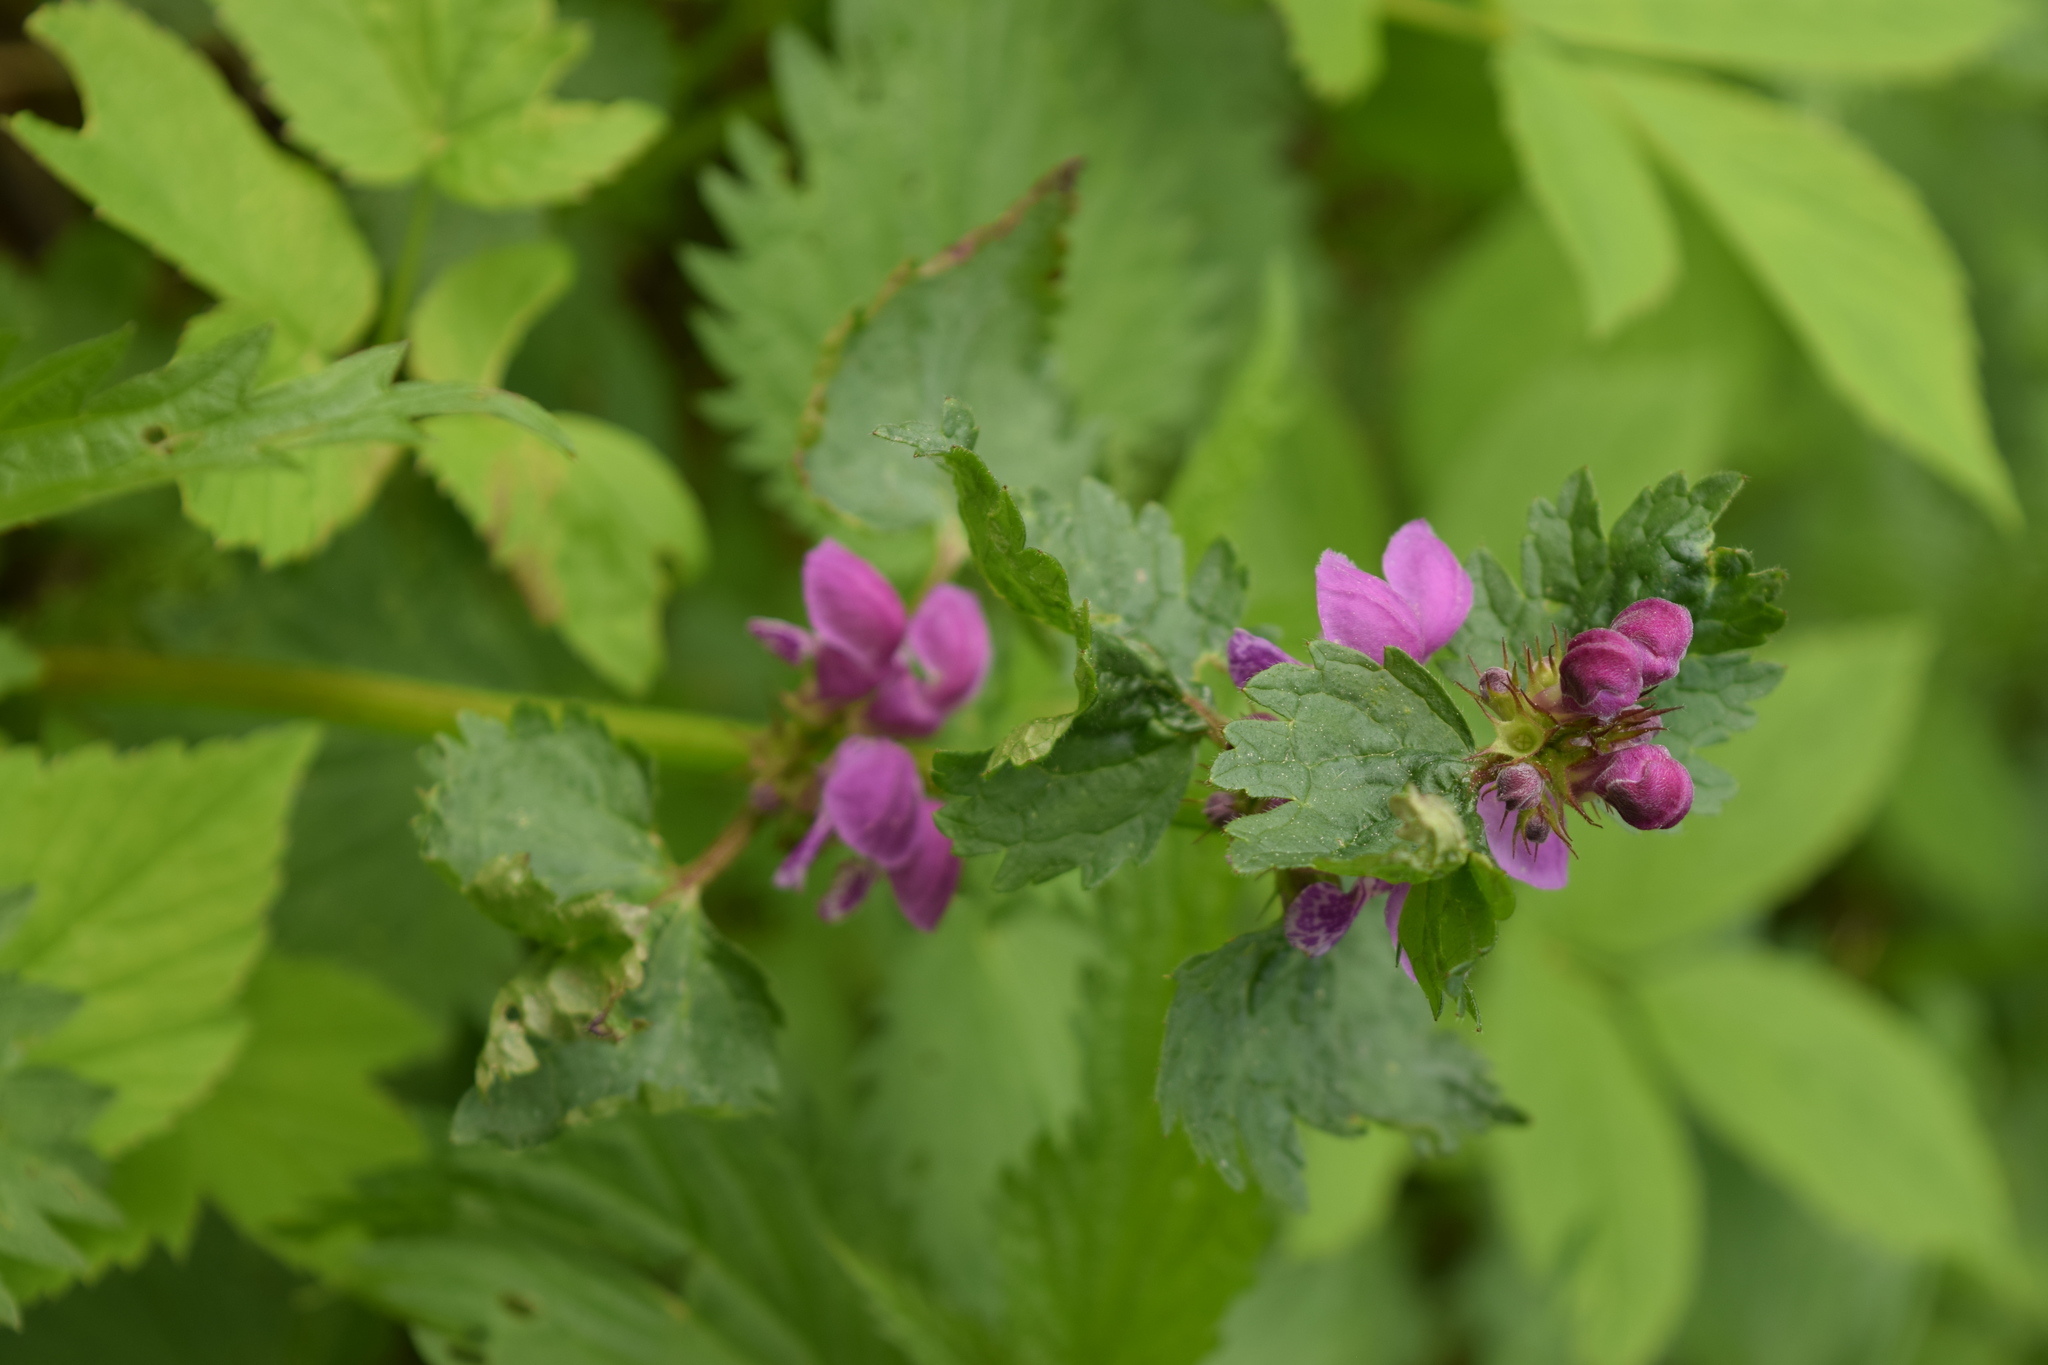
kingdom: Plantae
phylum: Tracheophyta
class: Magnoliopsida
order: Lamiales
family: Lamiaceae
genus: Lamium
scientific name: Lamium maculatum
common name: Spotted dead-nettle
